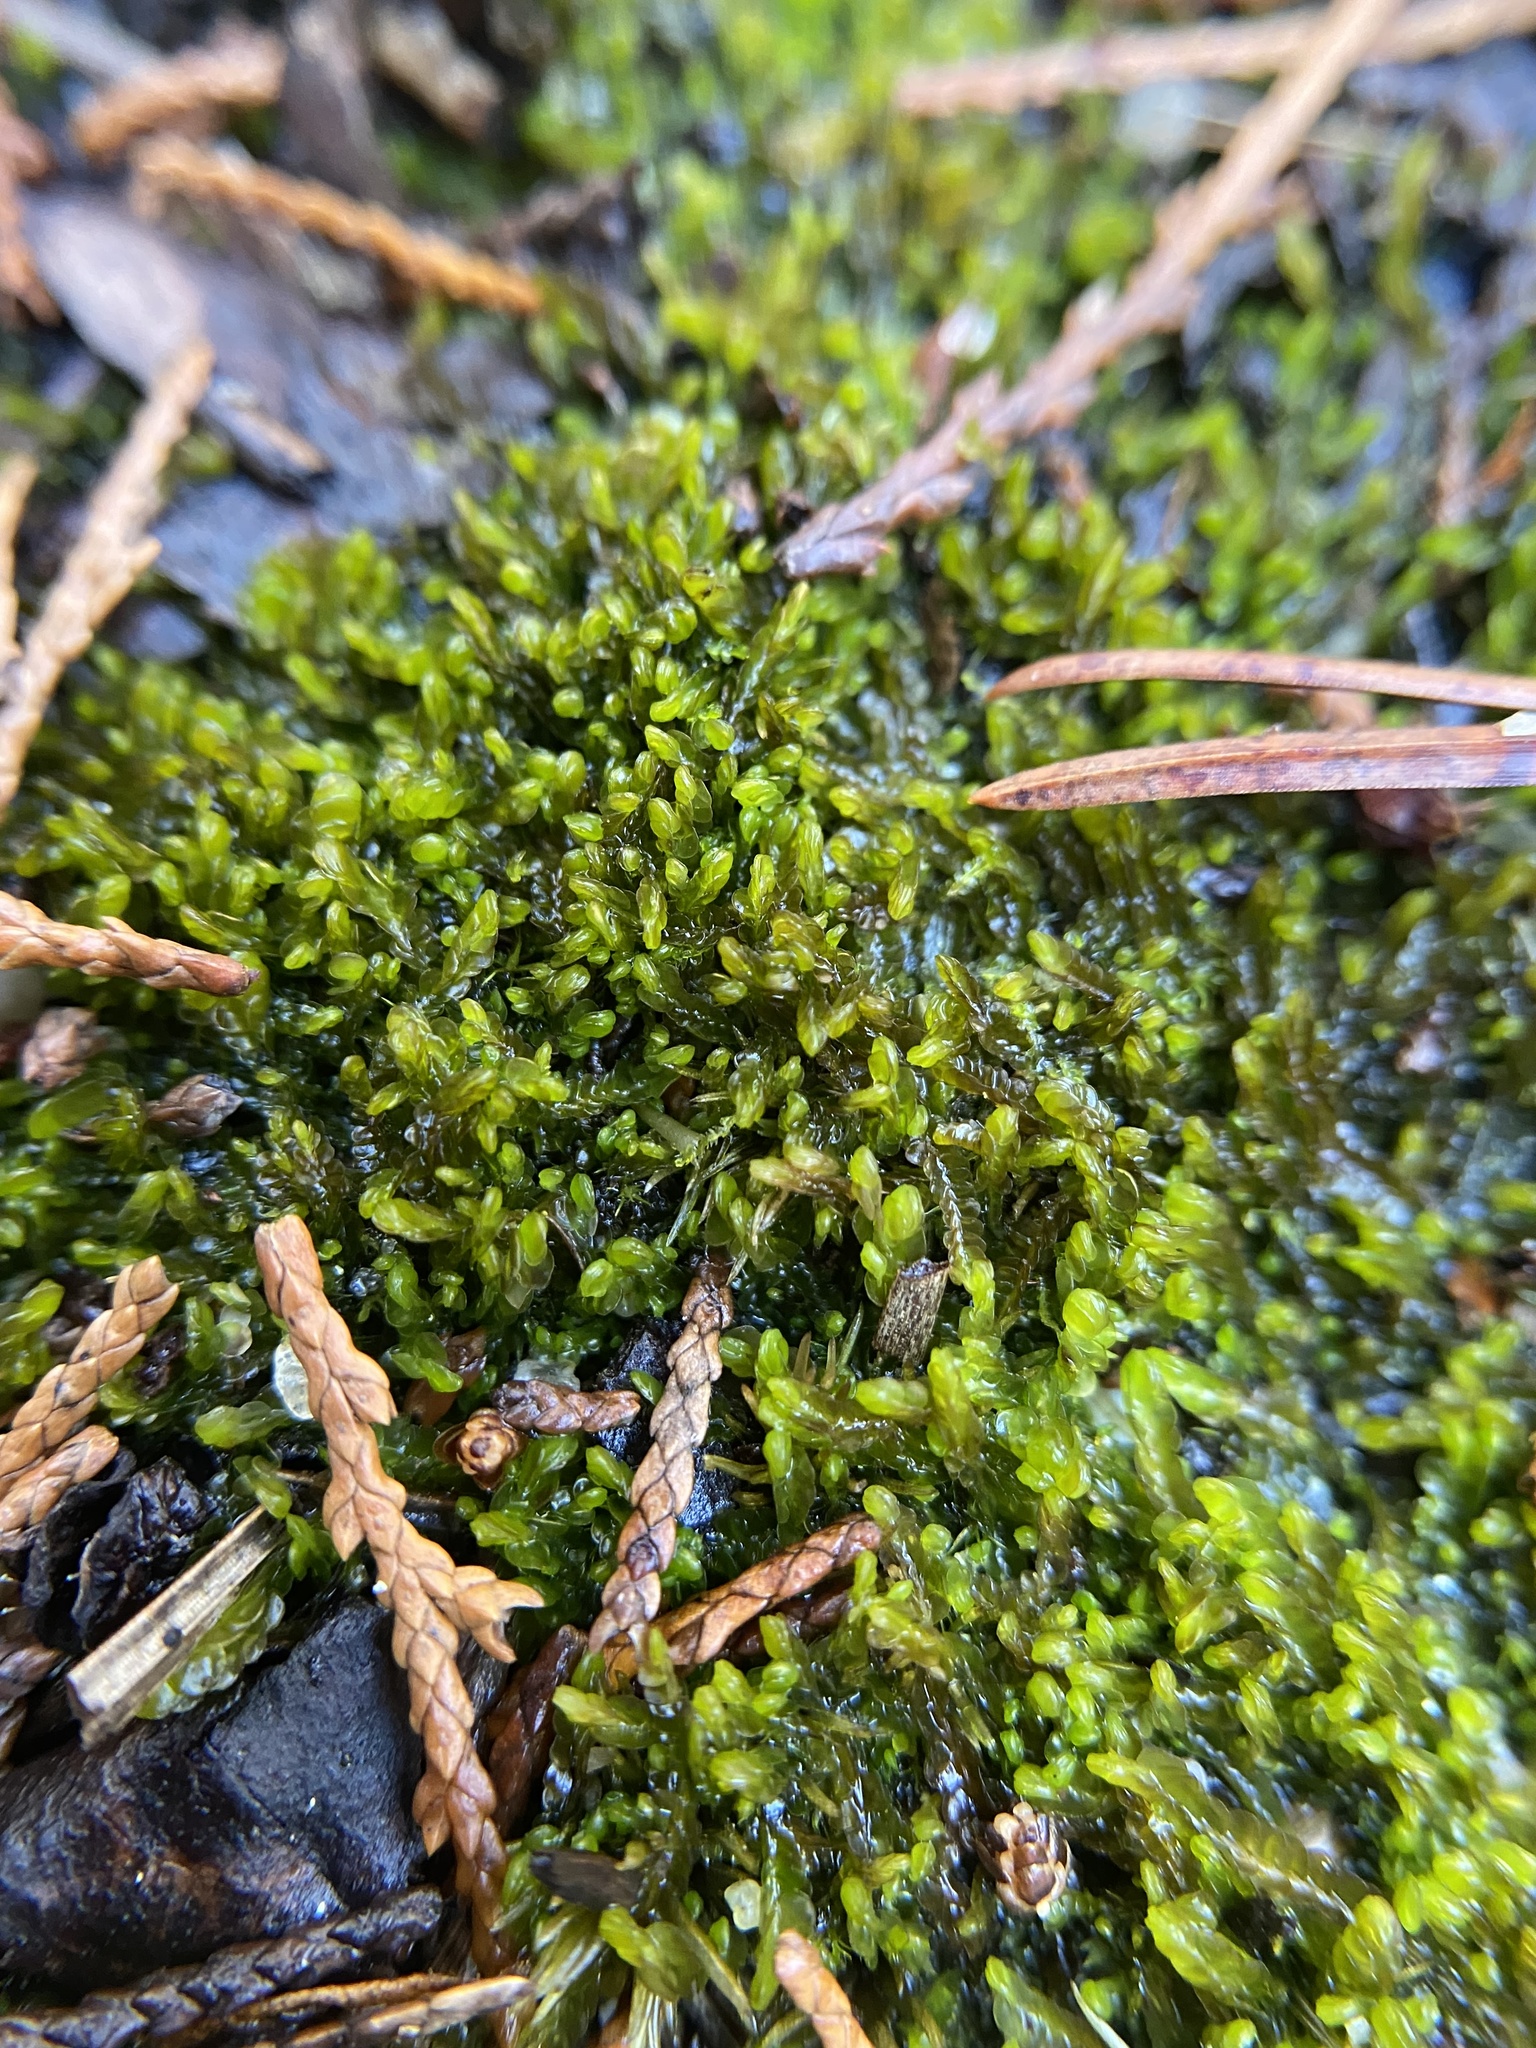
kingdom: Plantae
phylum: Marchantiophyta
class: Jungermanniopsida
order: Jungermanniales
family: Cephaloziaceae
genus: Odontoschisma
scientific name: Odontoschisma sphagni
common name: Bog-moss flapwort
